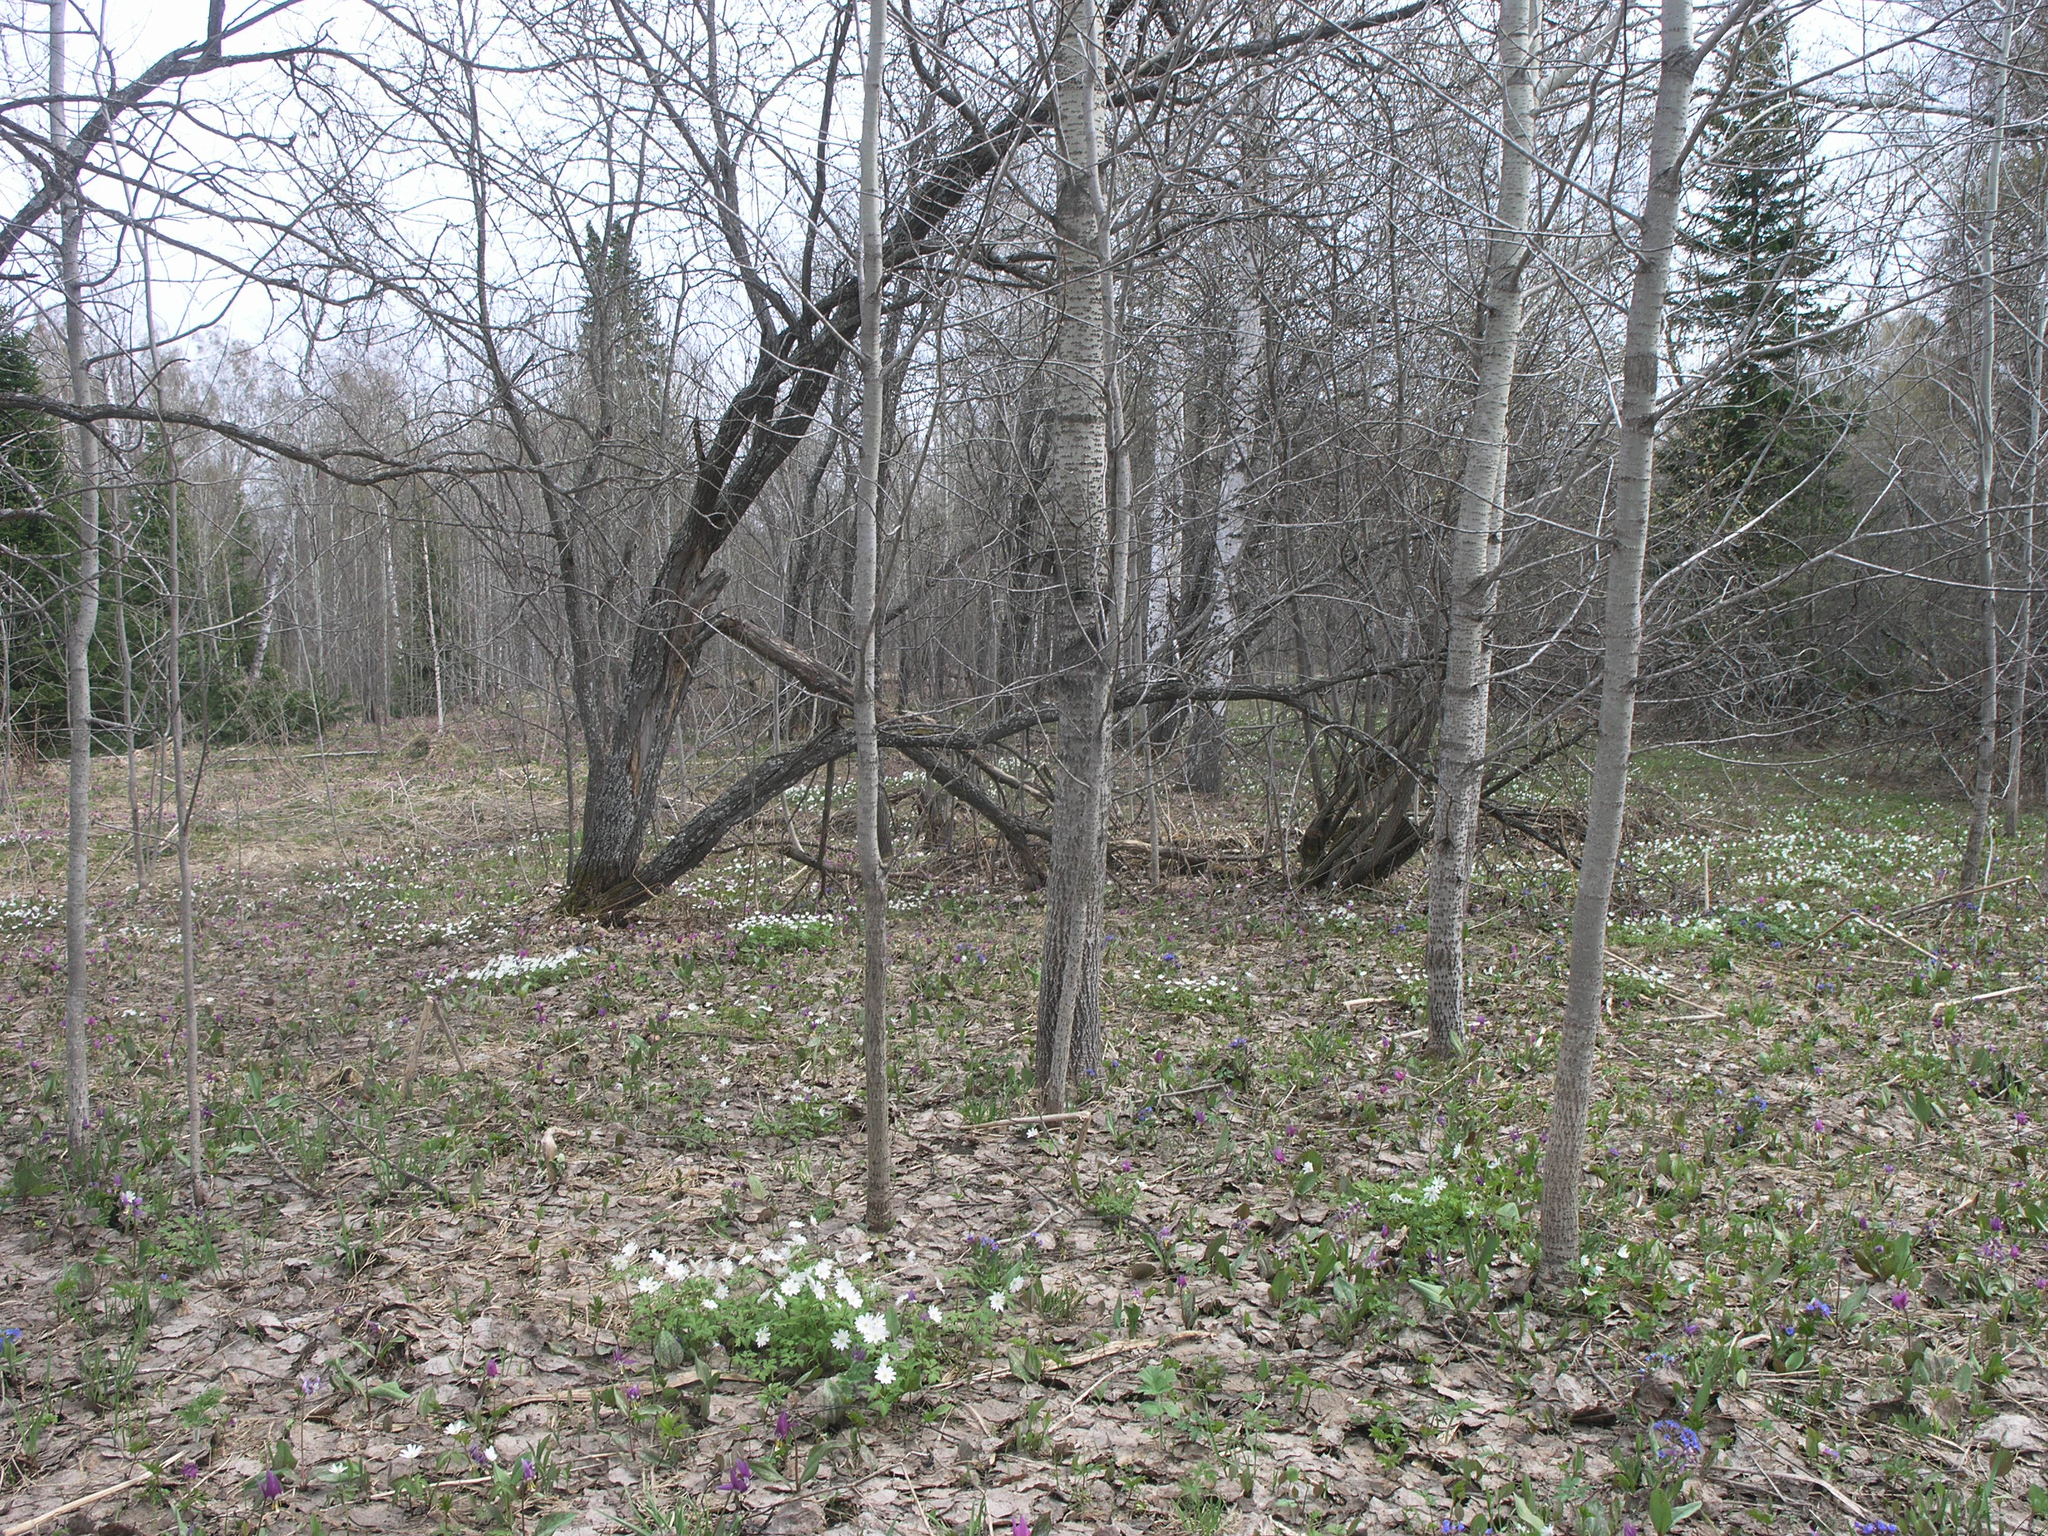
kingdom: Plantae
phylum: Tracheophyta
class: Magnoliopsida
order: Malpighiales
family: Salicaceae
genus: Populus
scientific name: Populus tremula
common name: European aspen
